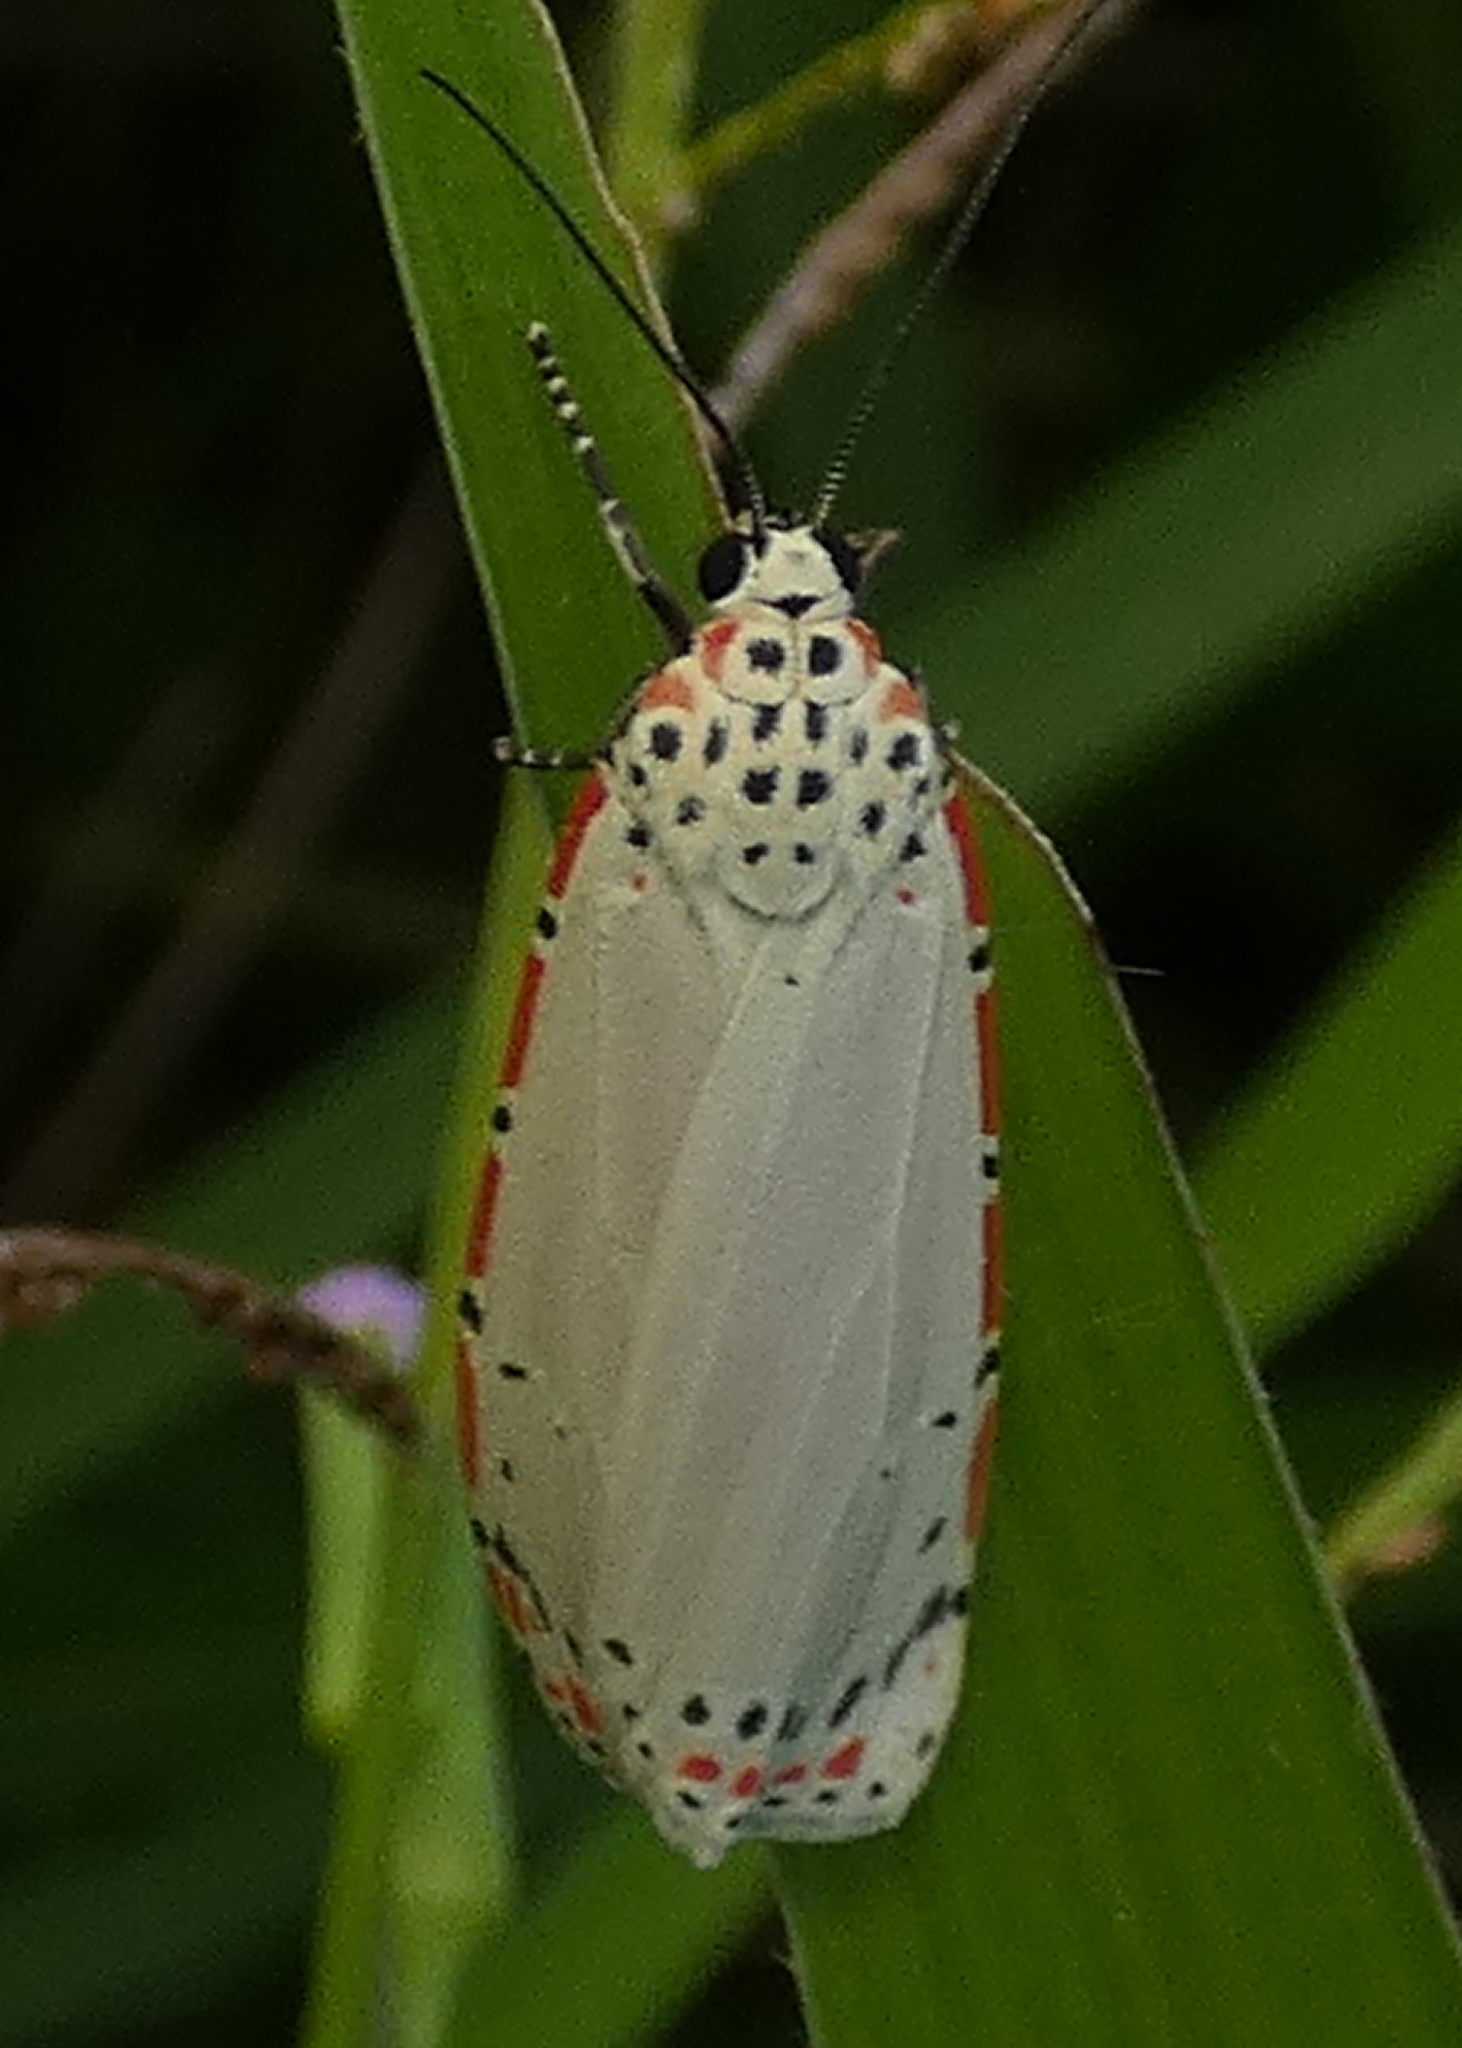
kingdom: Animalia
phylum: Arthropoda
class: Insecta
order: Lepidoptera
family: Erebidae
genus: Utetheisa
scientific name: Utetheisa ornatrix
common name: Beautiful utetheisa
